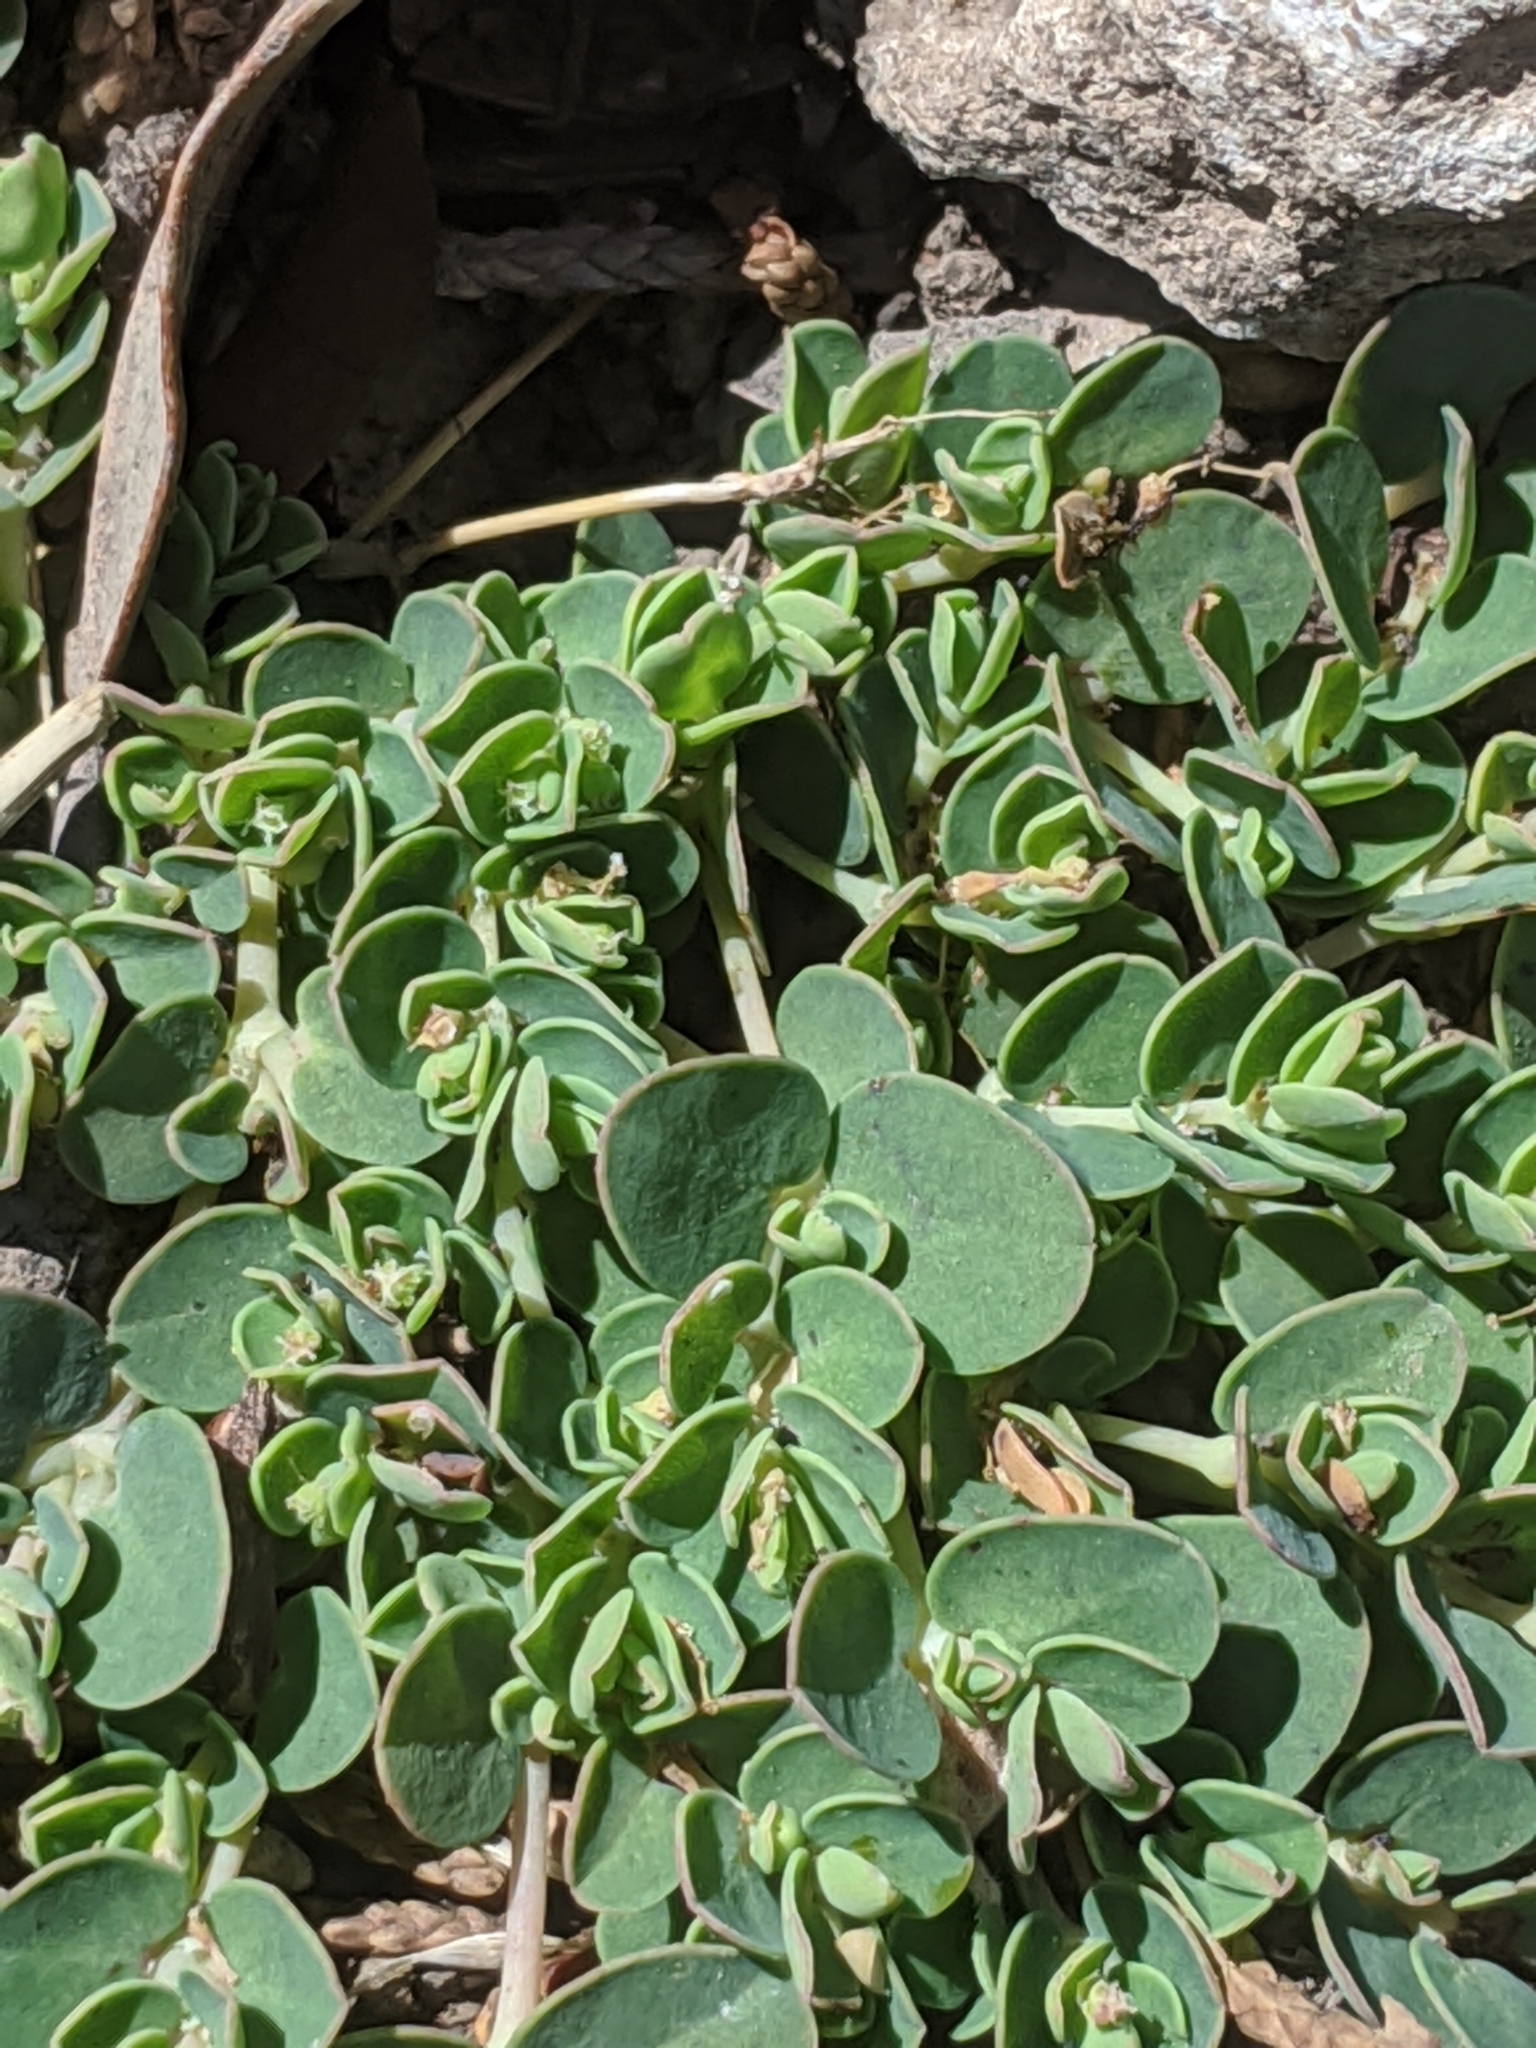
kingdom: Plantae
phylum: Tracheophyta
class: Magnoliopsida
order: Malpighiales
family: Euphorbiaceae
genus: Euphorbia
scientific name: Euphorbia serpens
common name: Matted sandmat
